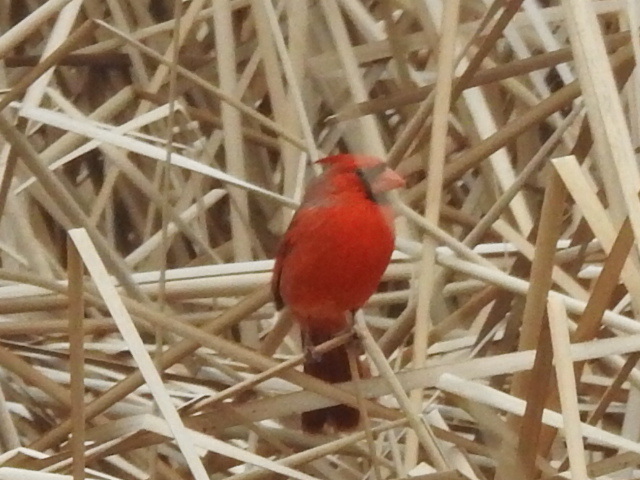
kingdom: Animalia
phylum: Chordata
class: Aves
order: Passeriformes
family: Cardinalidae
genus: Cardinalis
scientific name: Cardinalis cardinalis
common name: Northern cardinal
